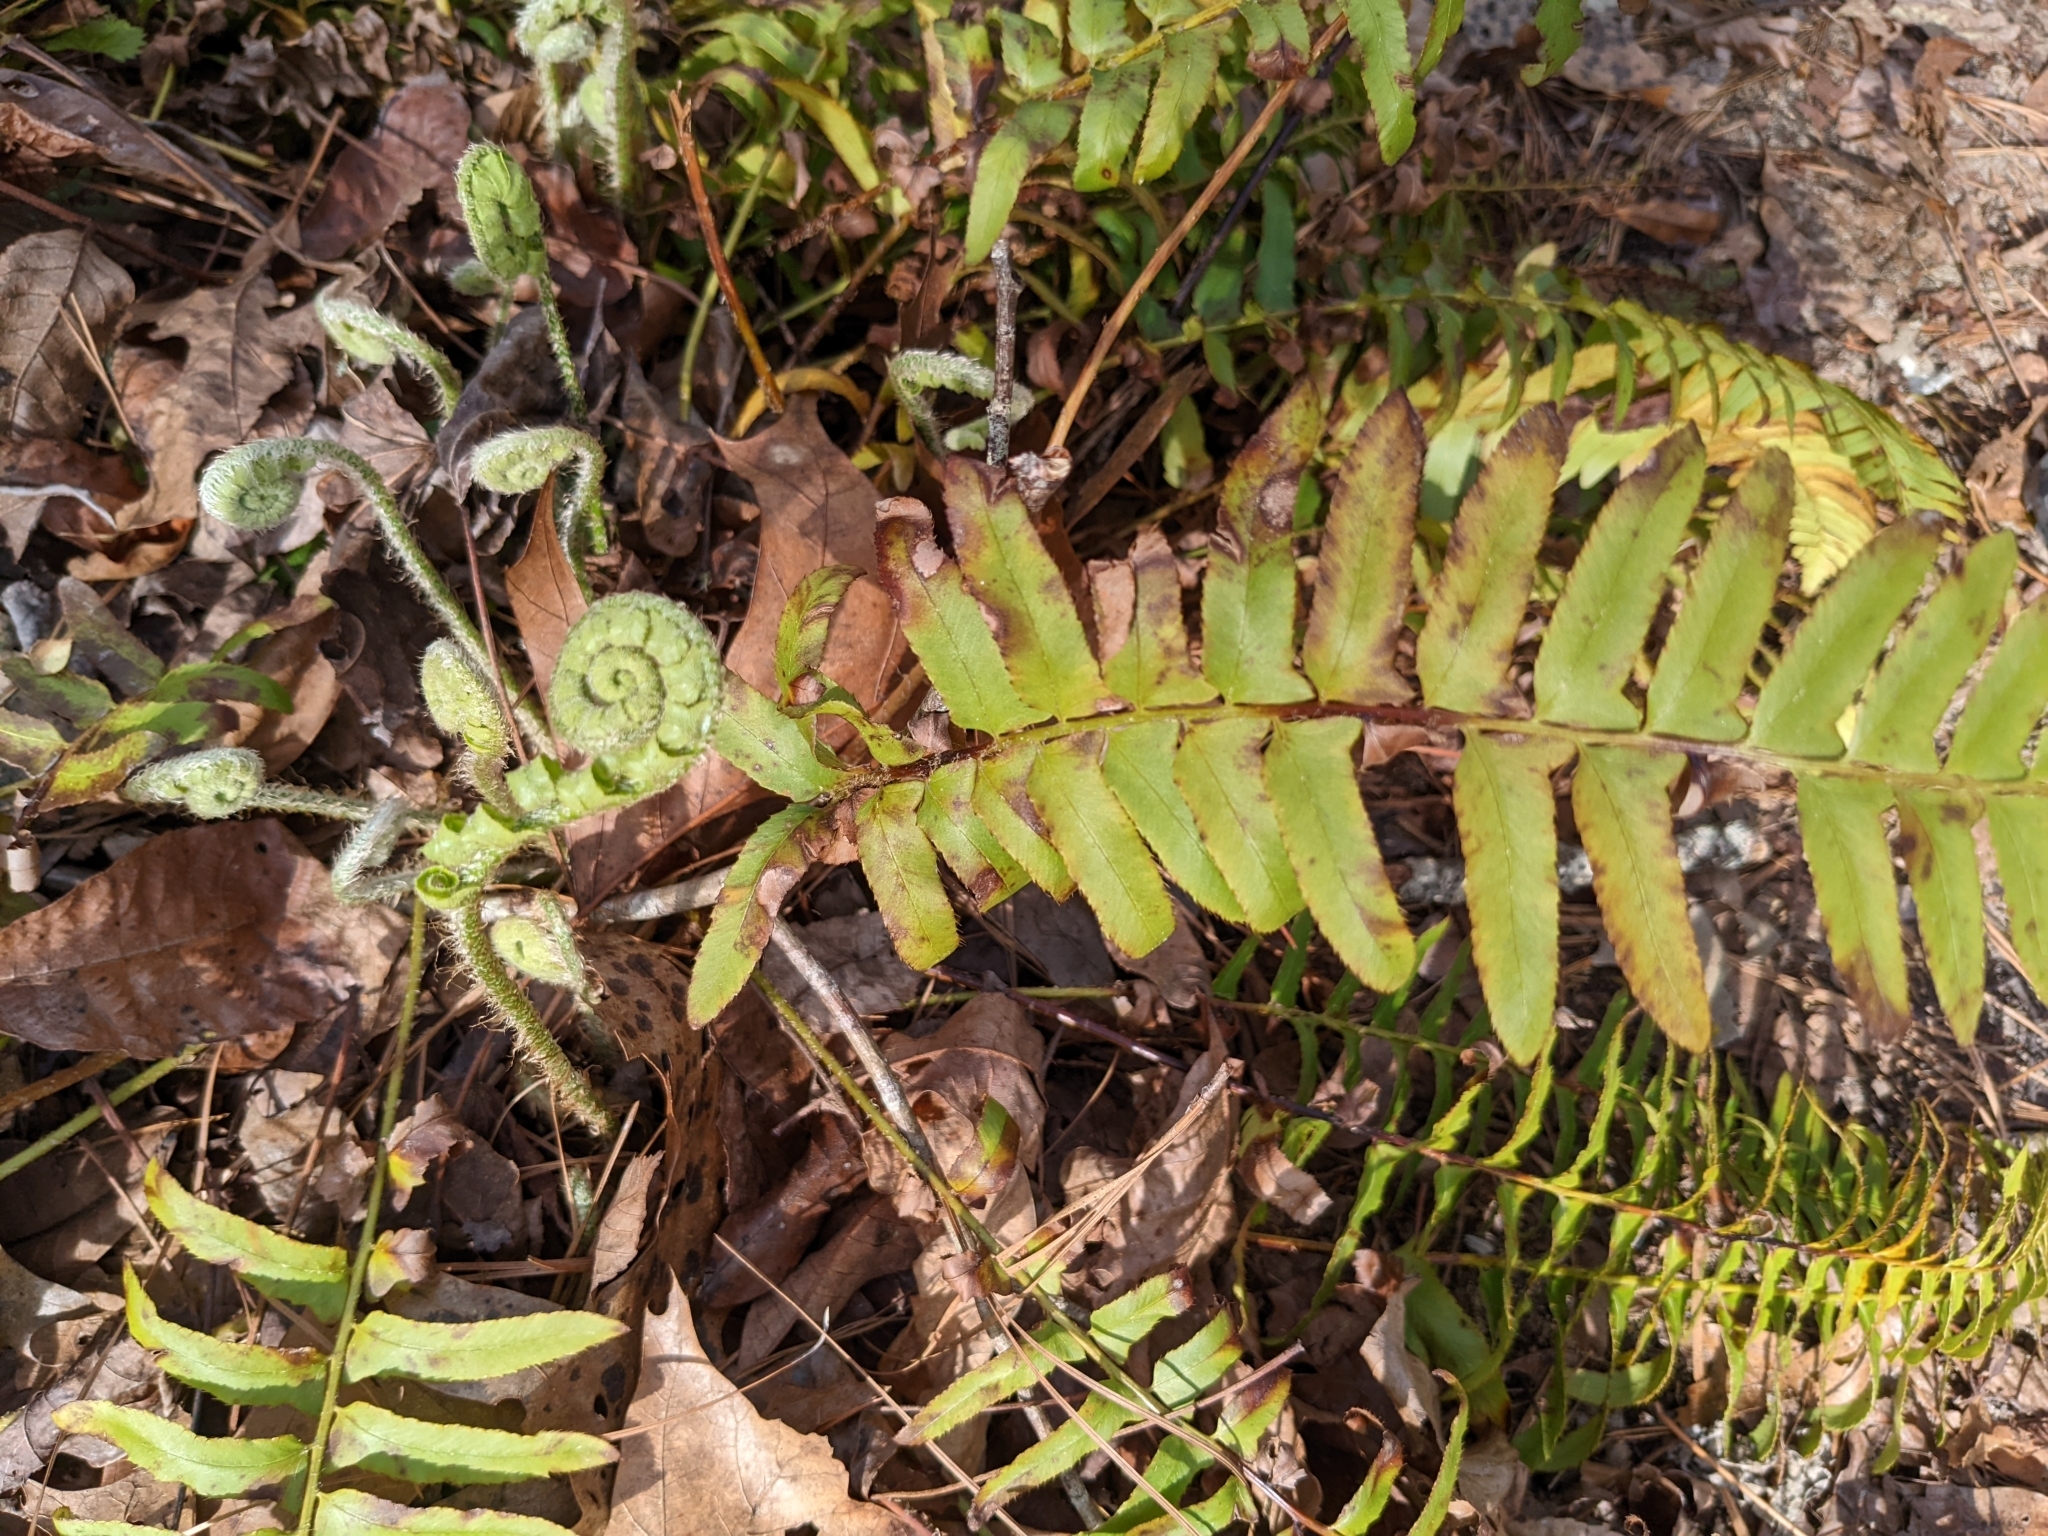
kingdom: Plantae
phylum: Tracheophyta
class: Polypodiopsida
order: Polypodiales
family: Dryopteridaceae
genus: Polystichum
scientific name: Polystichum acrostichoides
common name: Christmas fern
